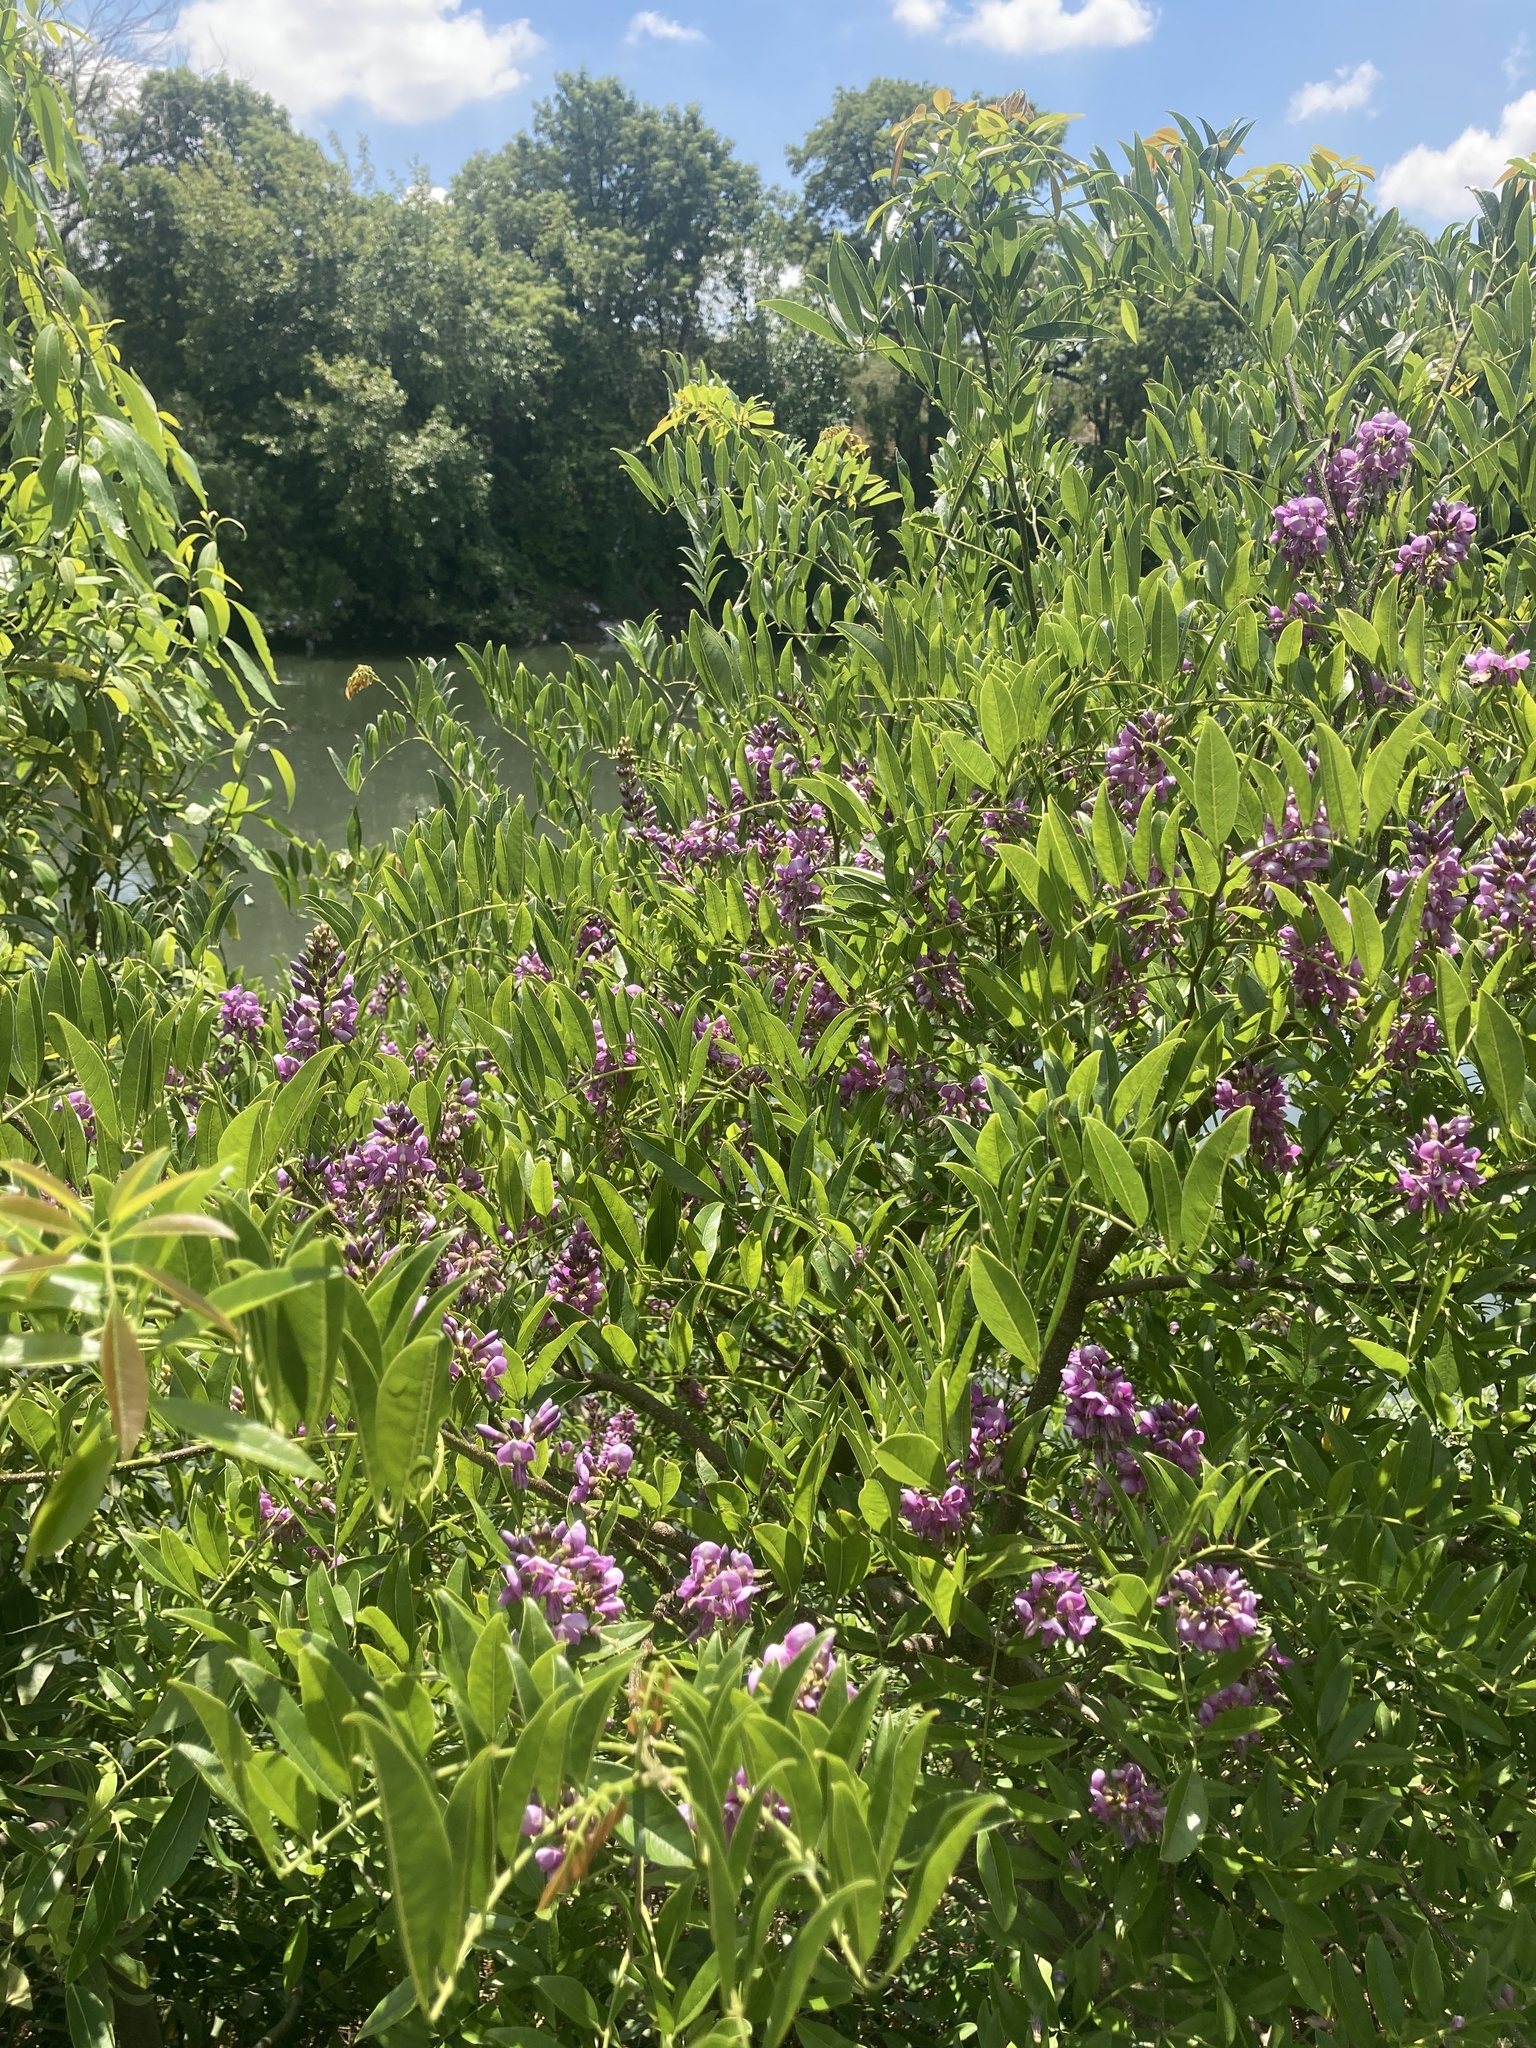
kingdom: Plantae
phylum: Tracheophyta
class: Magnoliopsida
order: Fabales
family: Fabaceae
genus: Lonchocarpus
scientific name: Lonchocarpus nitidus
